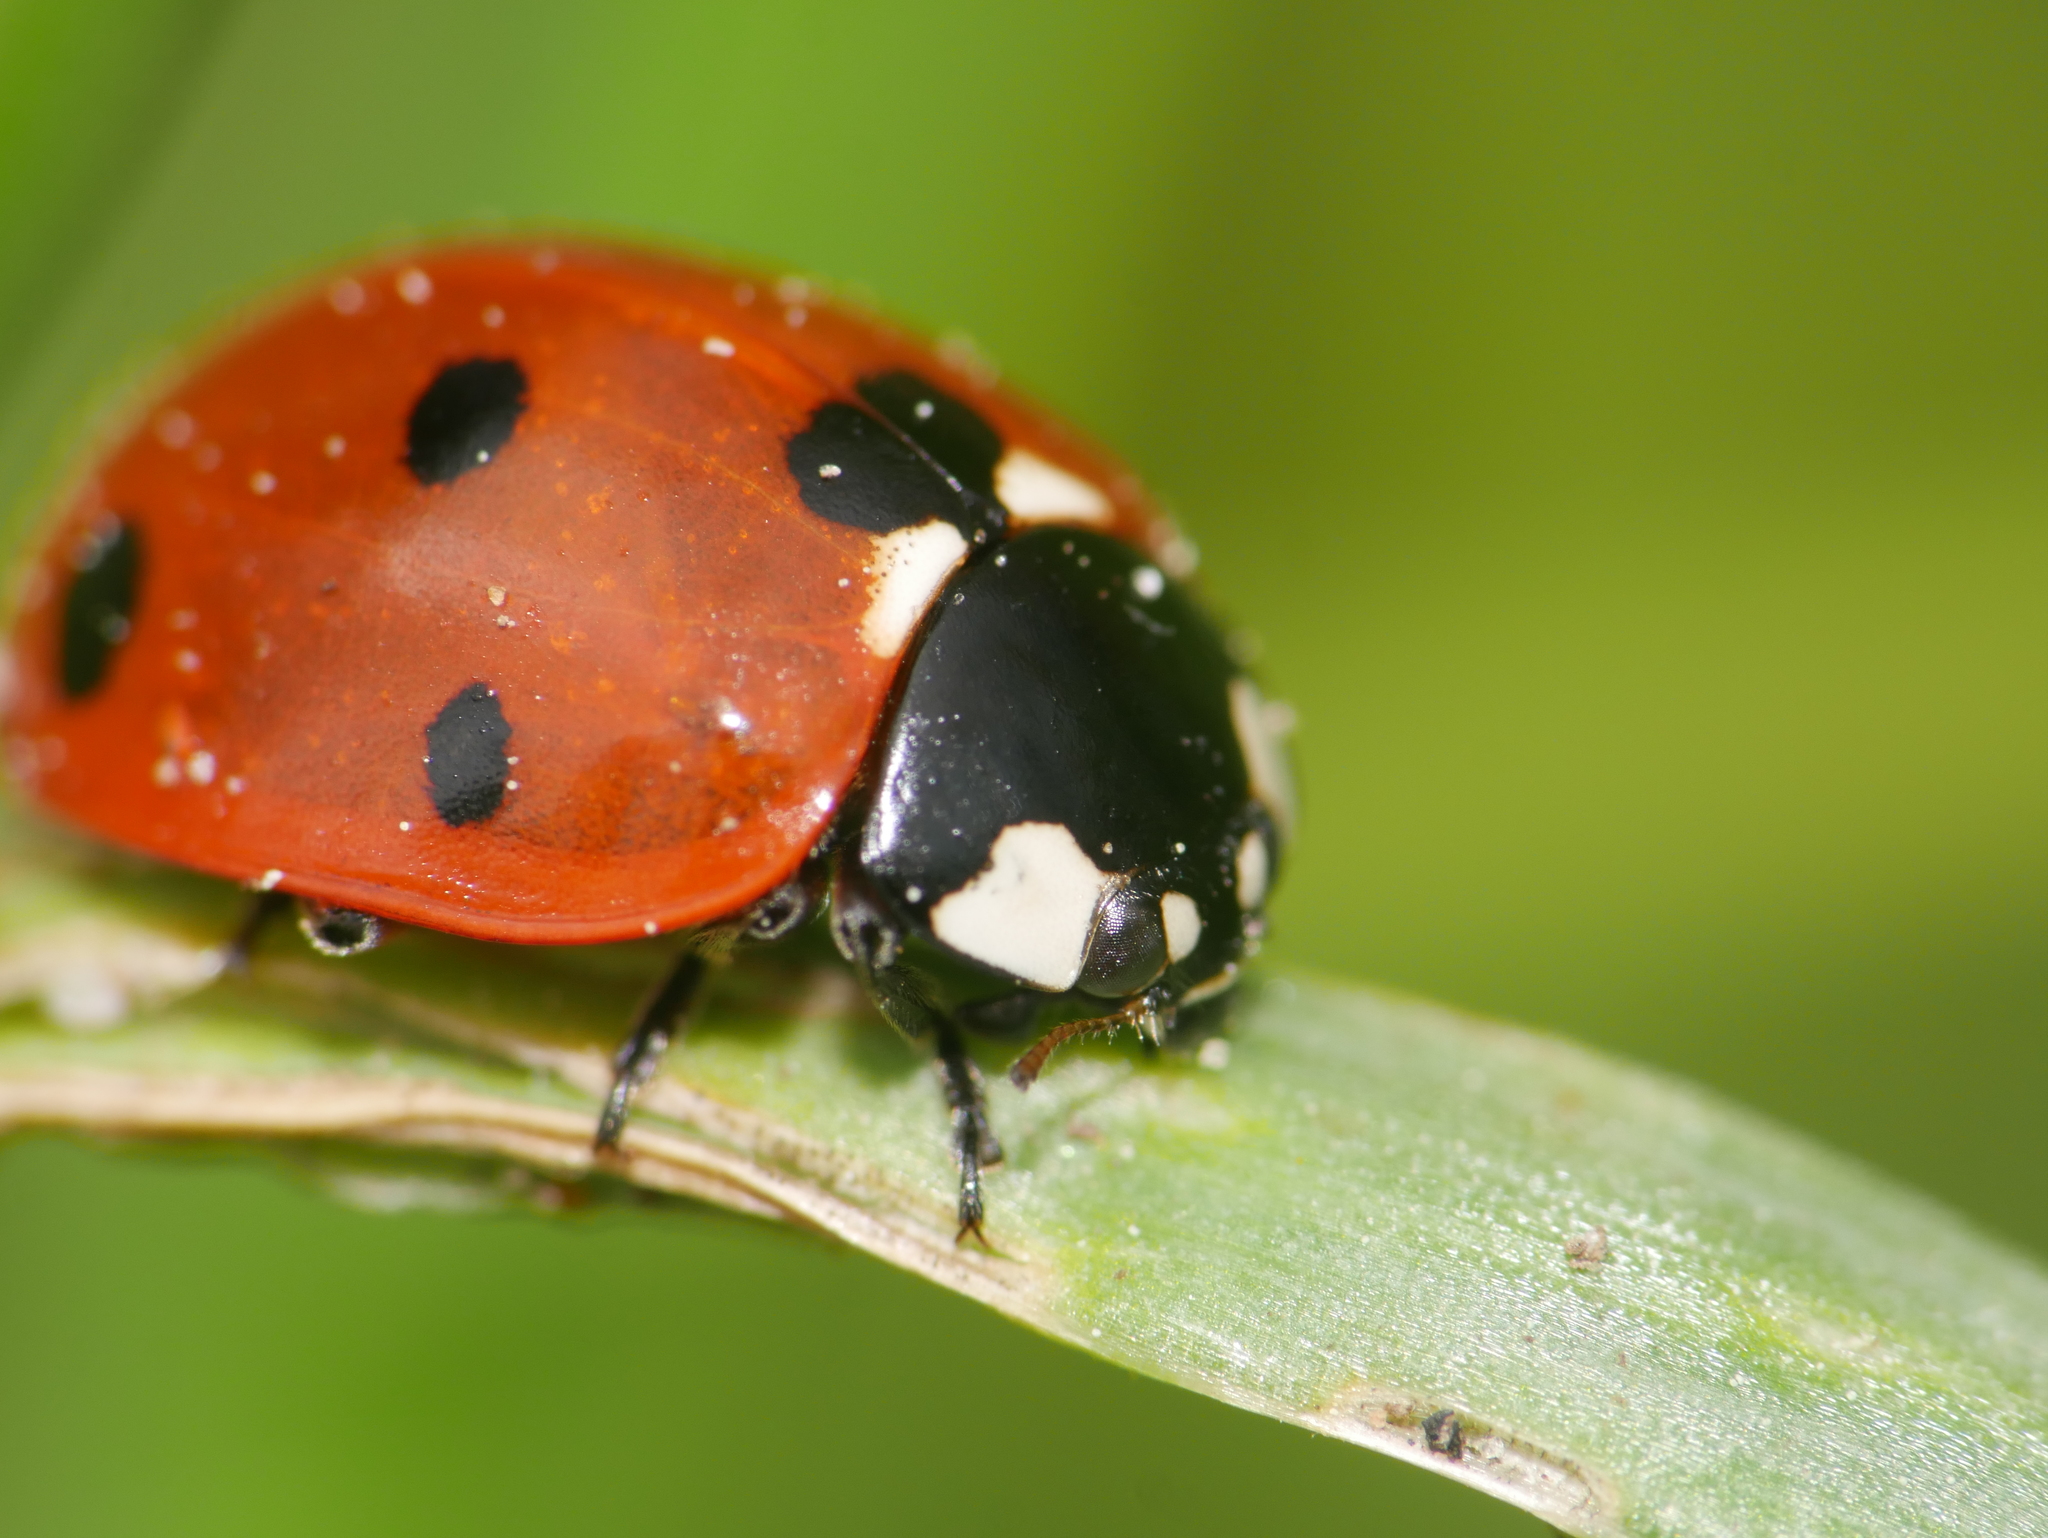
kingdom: Animalia
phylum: Arthropoda
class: Insecta
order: Coleoptera
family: Coccinellidae
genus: Coccinella
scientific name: Coccinella septempunctata
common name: Sevenspotted lady beetle
